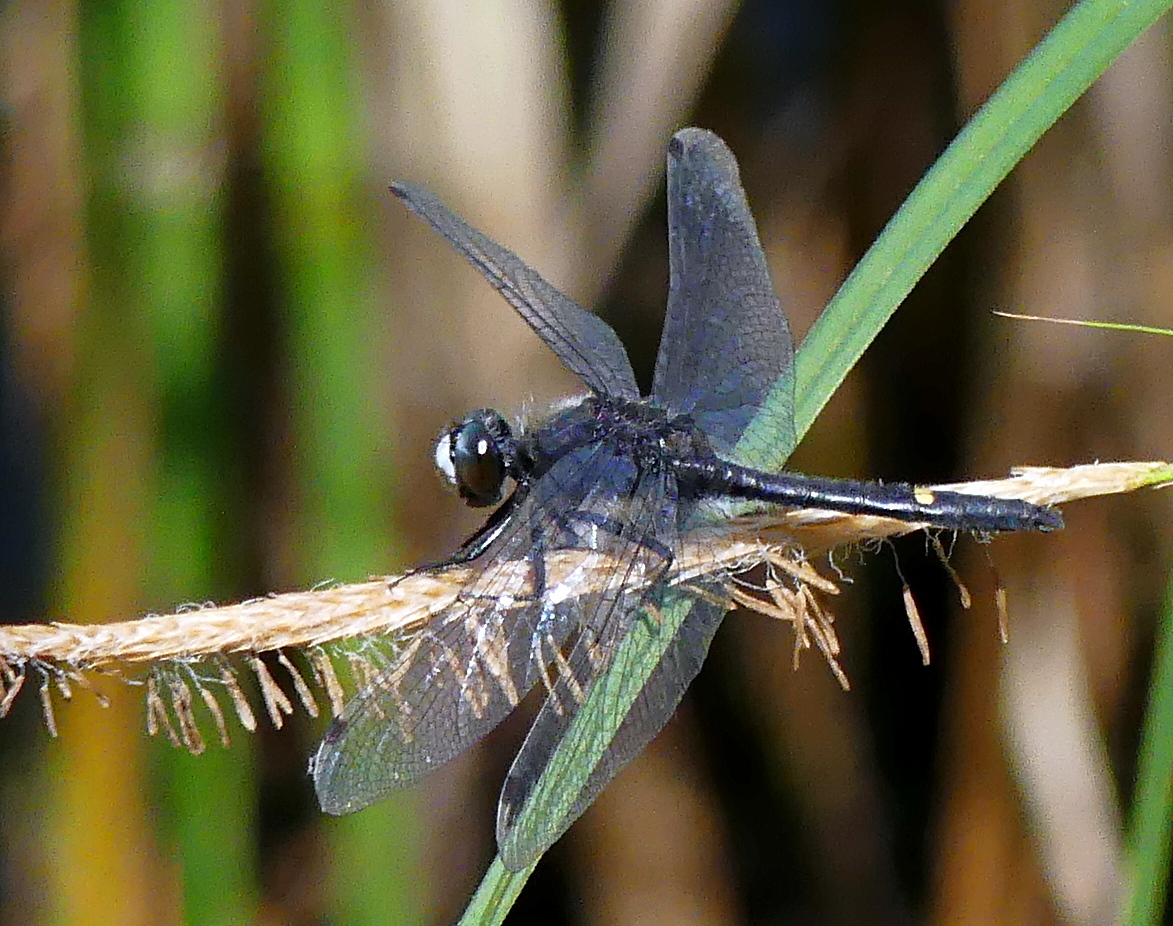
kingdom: Animalia
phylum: Arthropoda
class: Insecta
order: Odonata
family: Libellulidae
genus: Leucorrhinia
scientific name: Leucorrhinia intacta
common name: Dot-tailed whiteface
